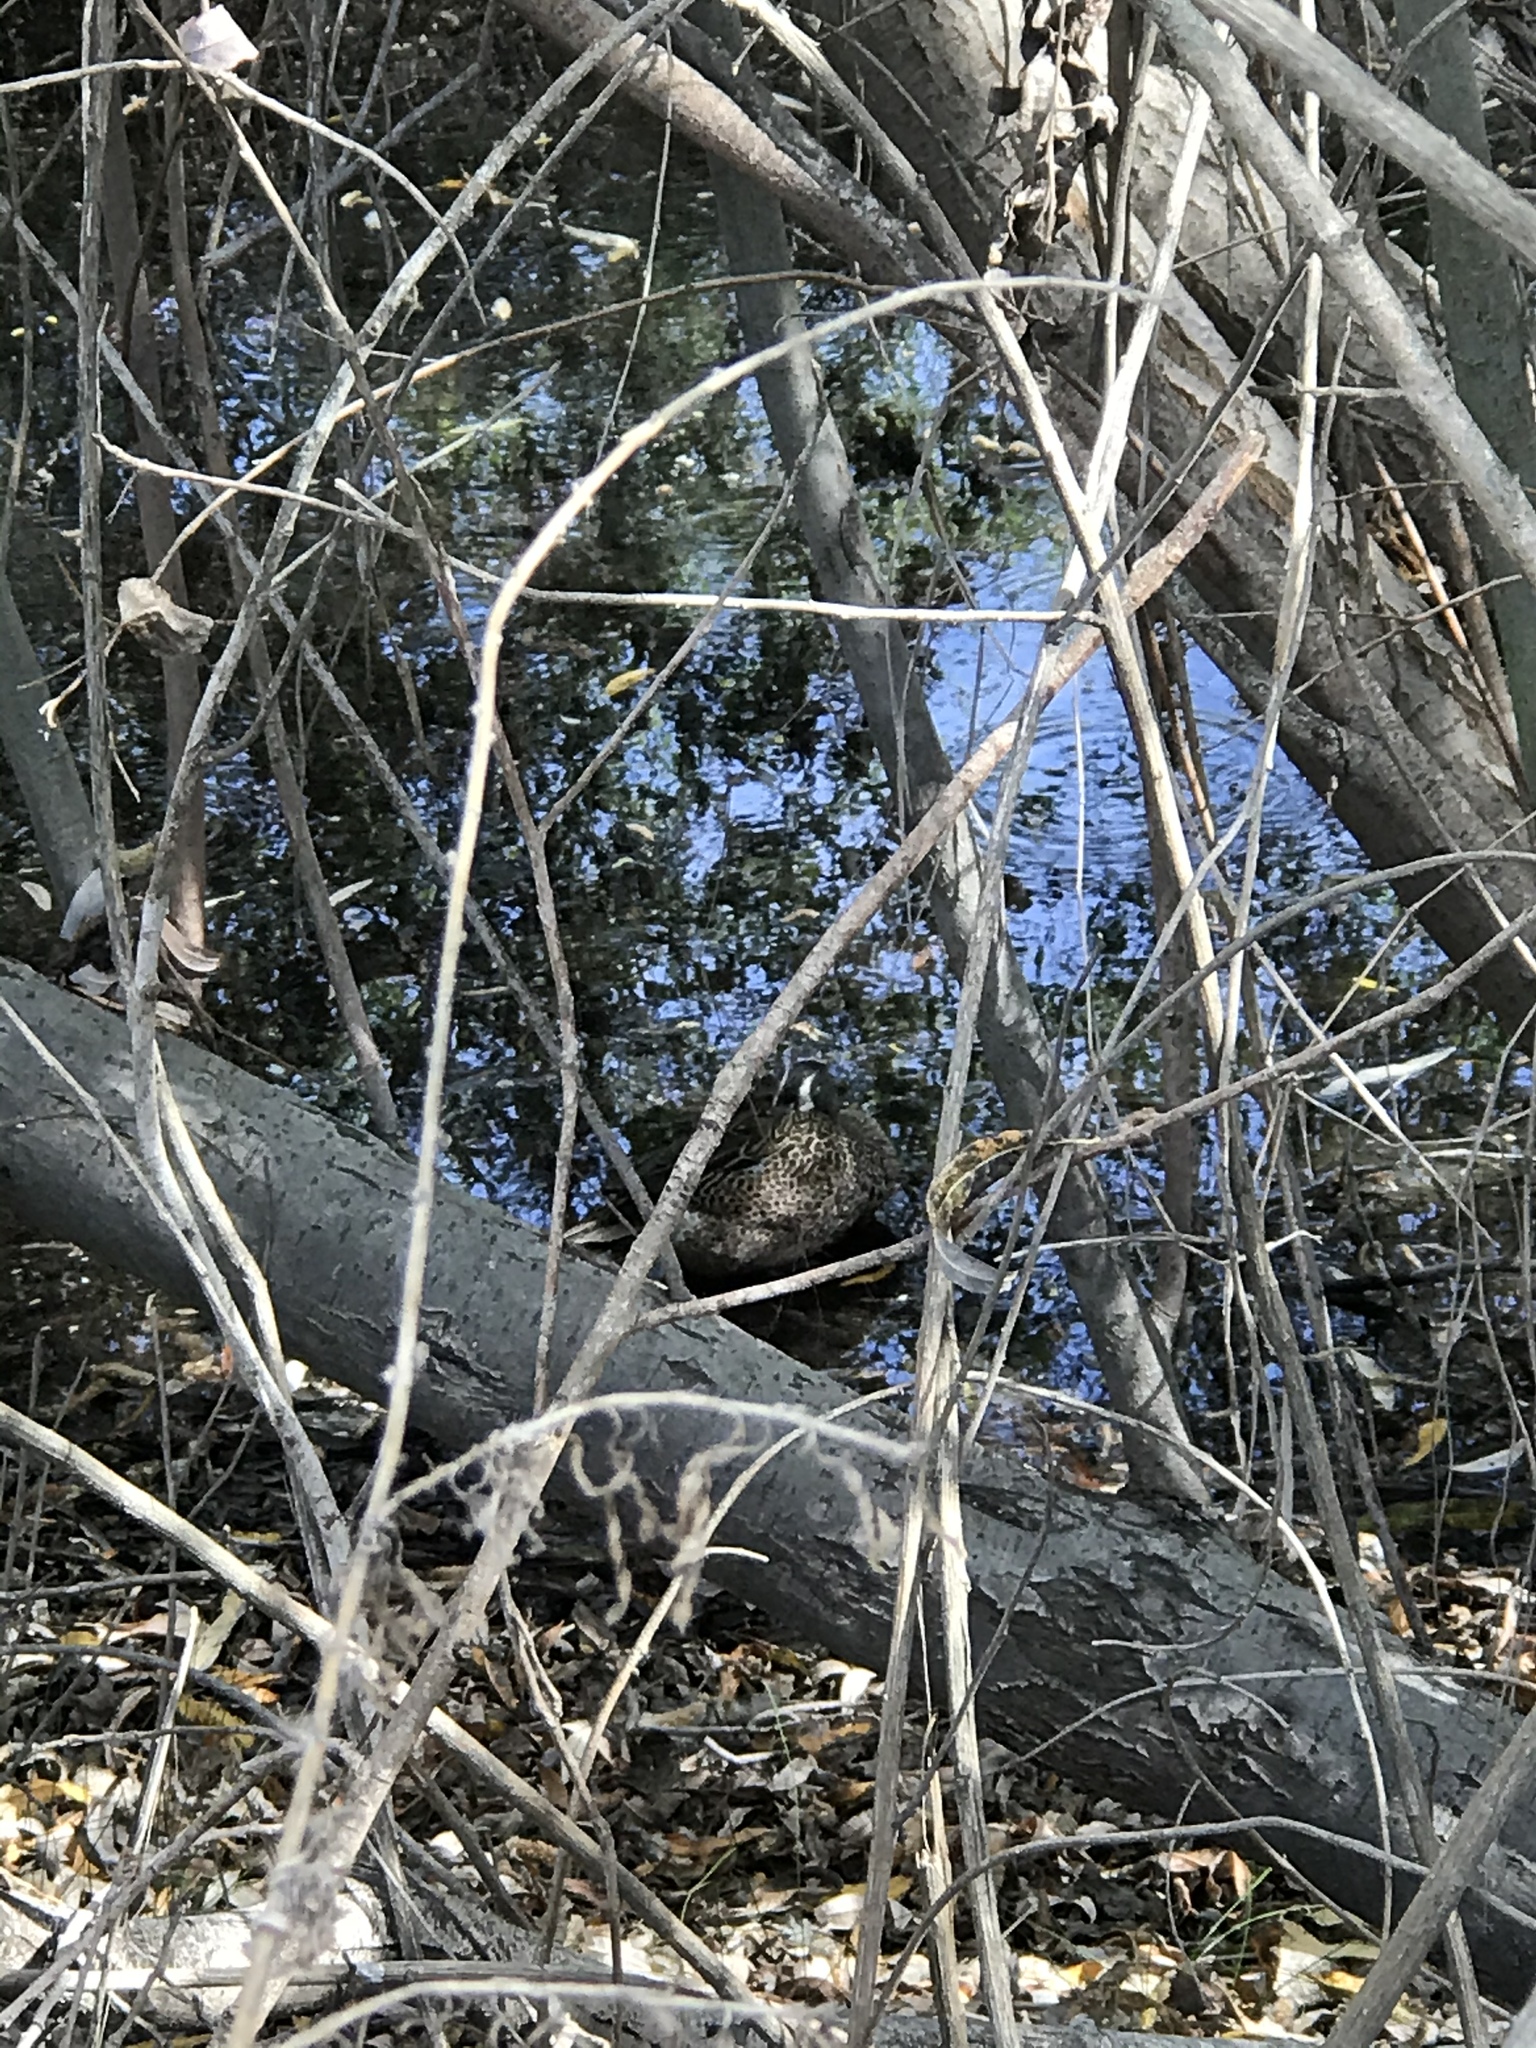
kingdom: Animalia
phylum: Chordata
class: Aves
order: Anseriformes
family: Anatidae
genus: Spatula
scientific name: Spatula discors
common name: Blue-winged teal
